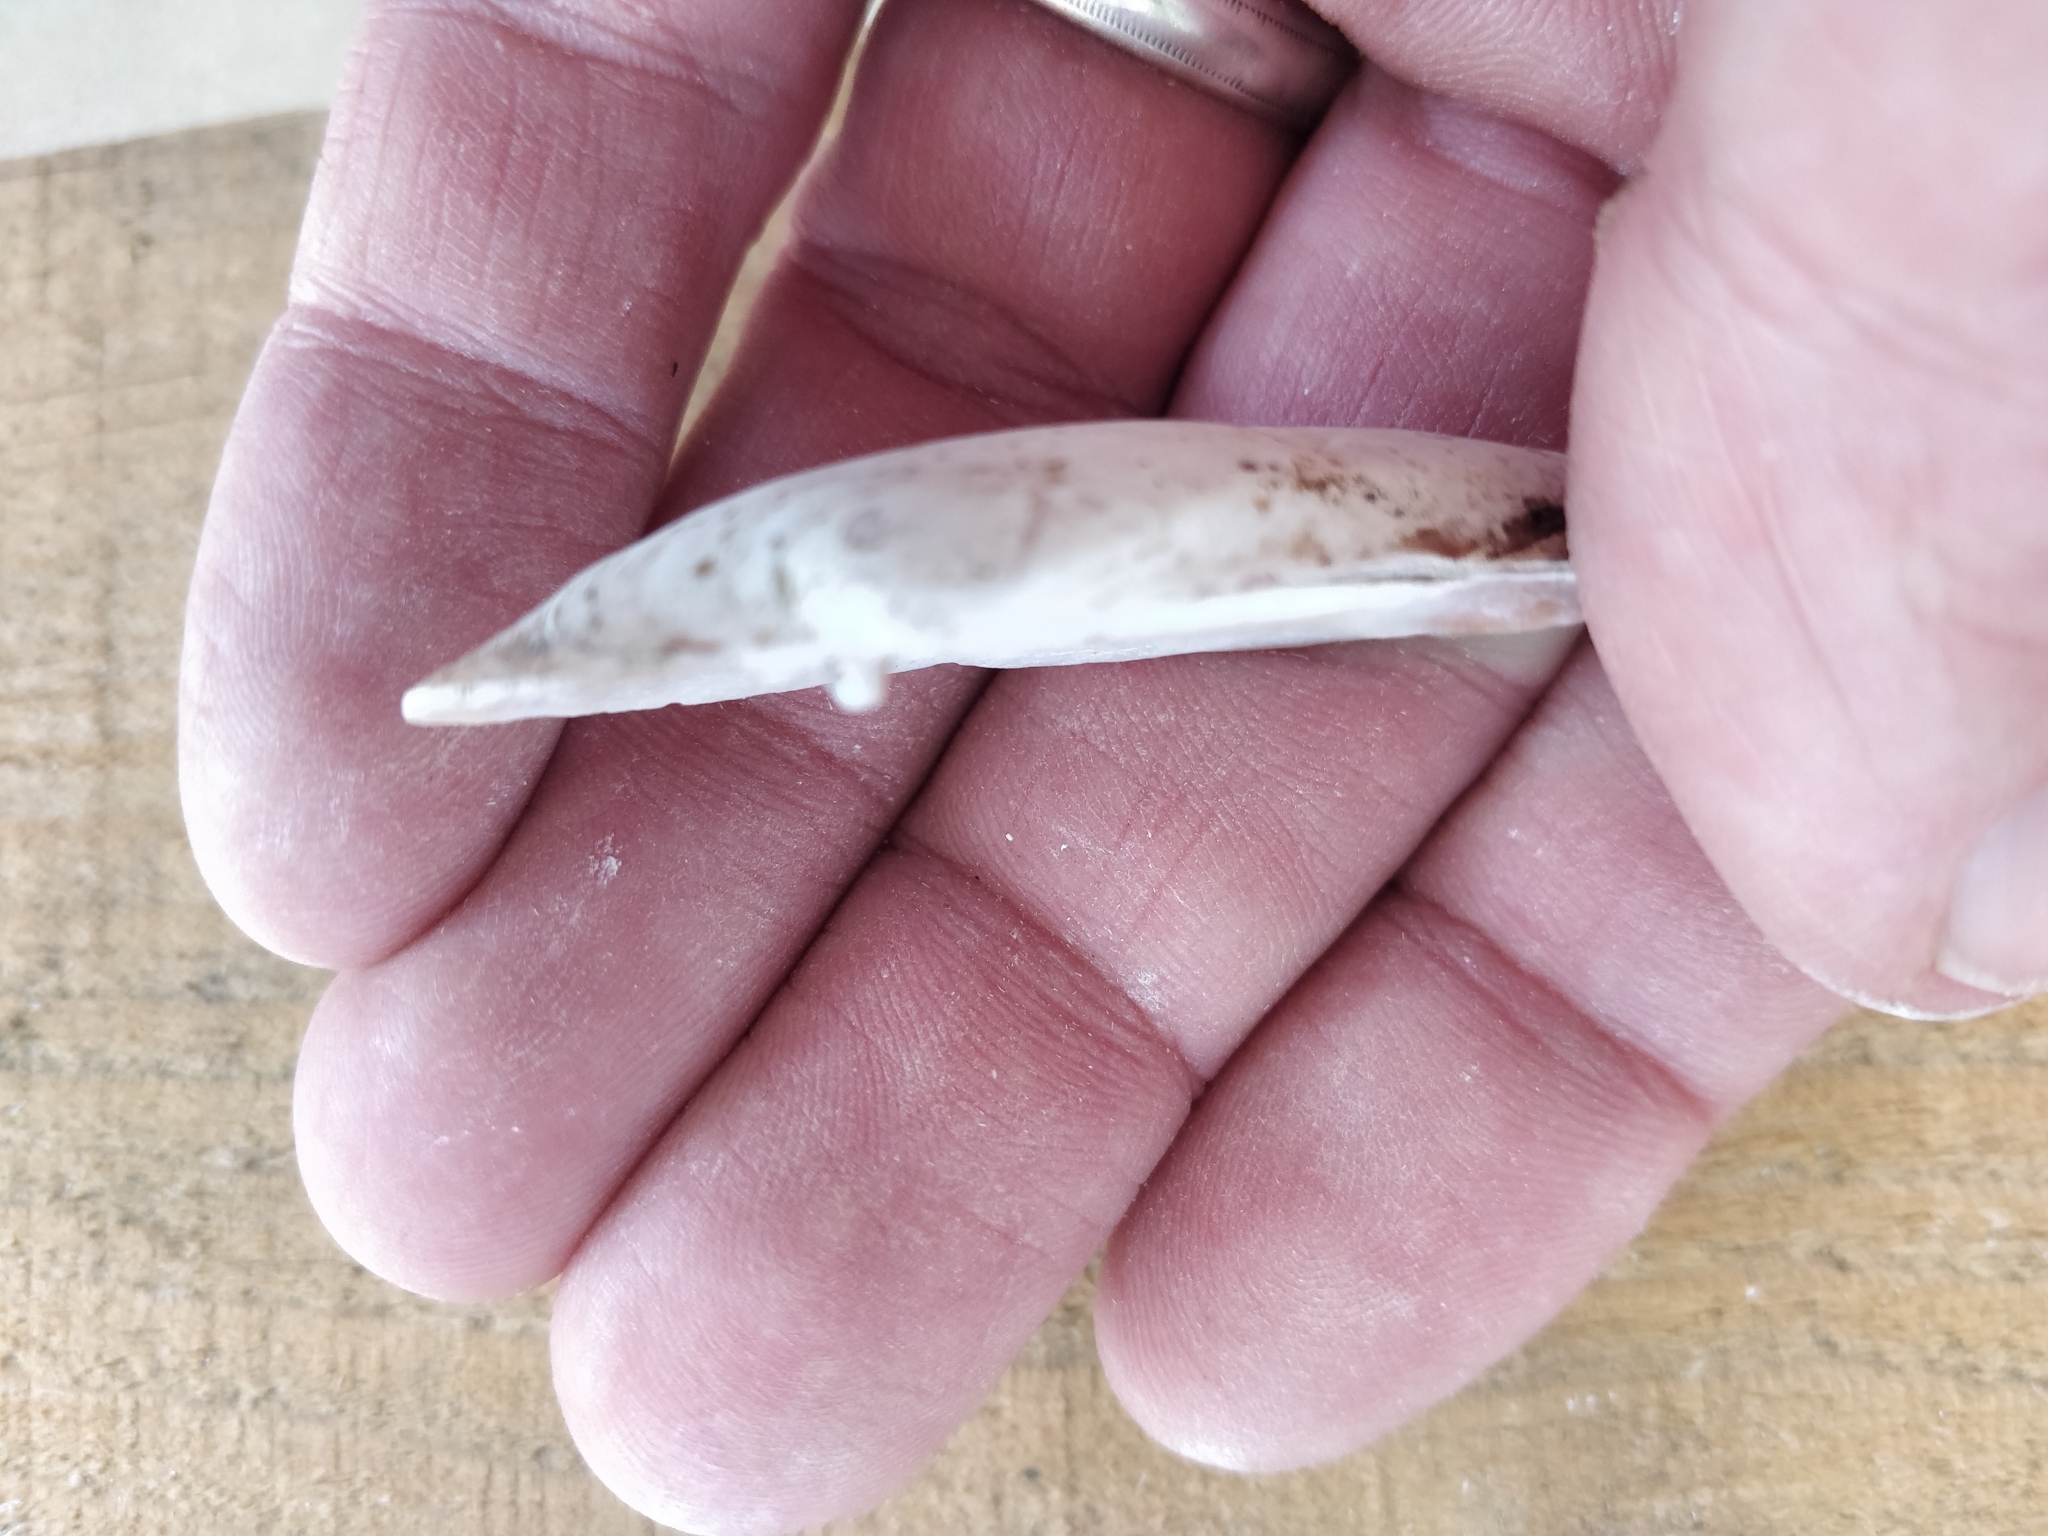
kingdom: Animalia
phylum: Mollusca
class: Bivalvia
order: Unionida
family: Unionidae
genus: Ligumia
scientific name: Ligumia recta
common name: Black sandshell
